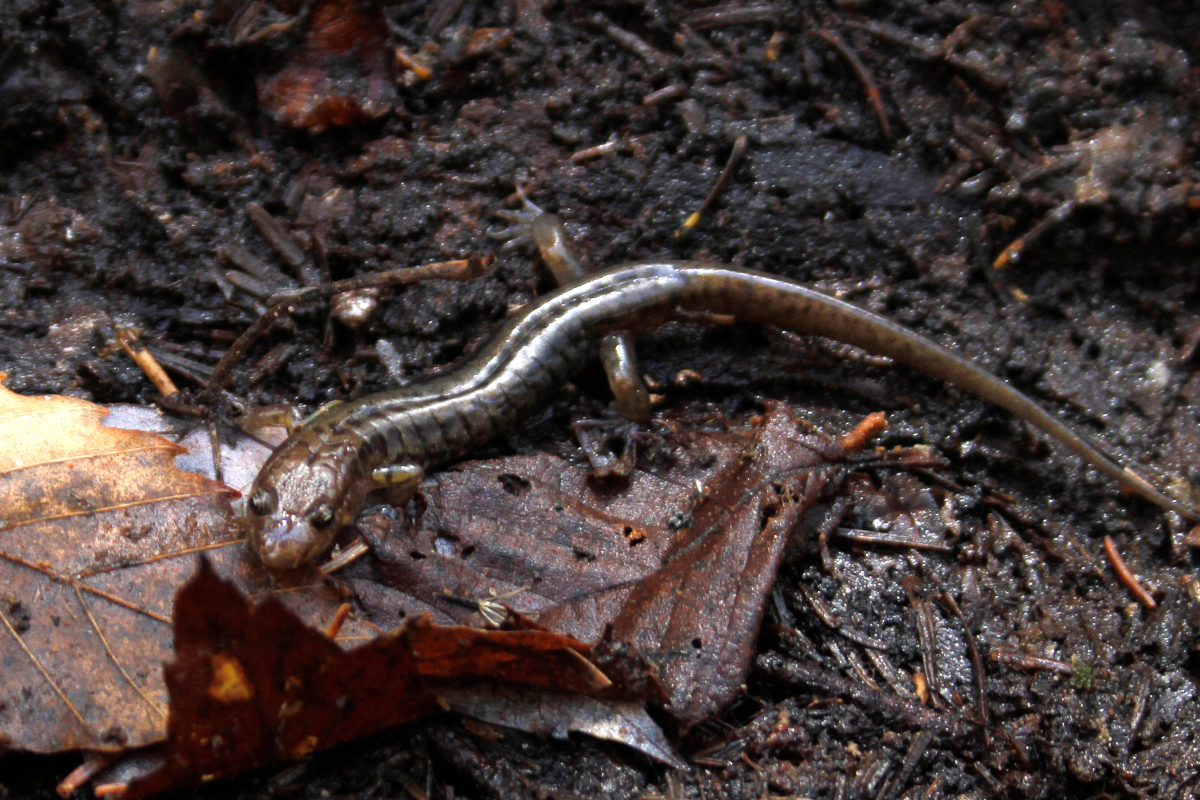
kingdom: Animalia
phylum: Chordata
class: Amphibia
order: Caudata
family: Plethodontidae
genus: Desmognathus
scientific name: Desmognathus ochrophaeus
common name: Allegheny mountain dusky salamander
